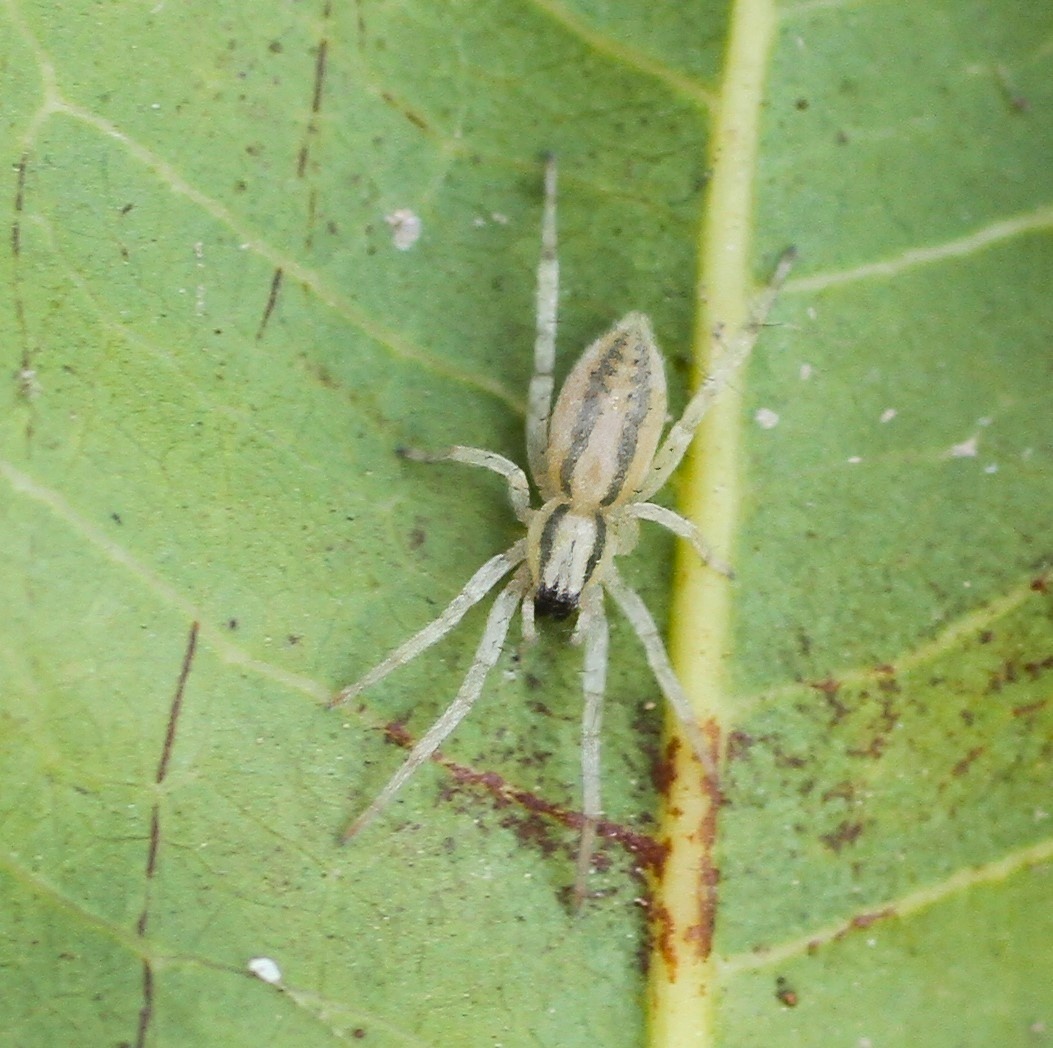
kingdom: Animalia
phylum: Arthropoda
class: Arachnida
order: Araneae
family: Anyphaenidae
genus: Hibana
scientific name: Hibana incursa
